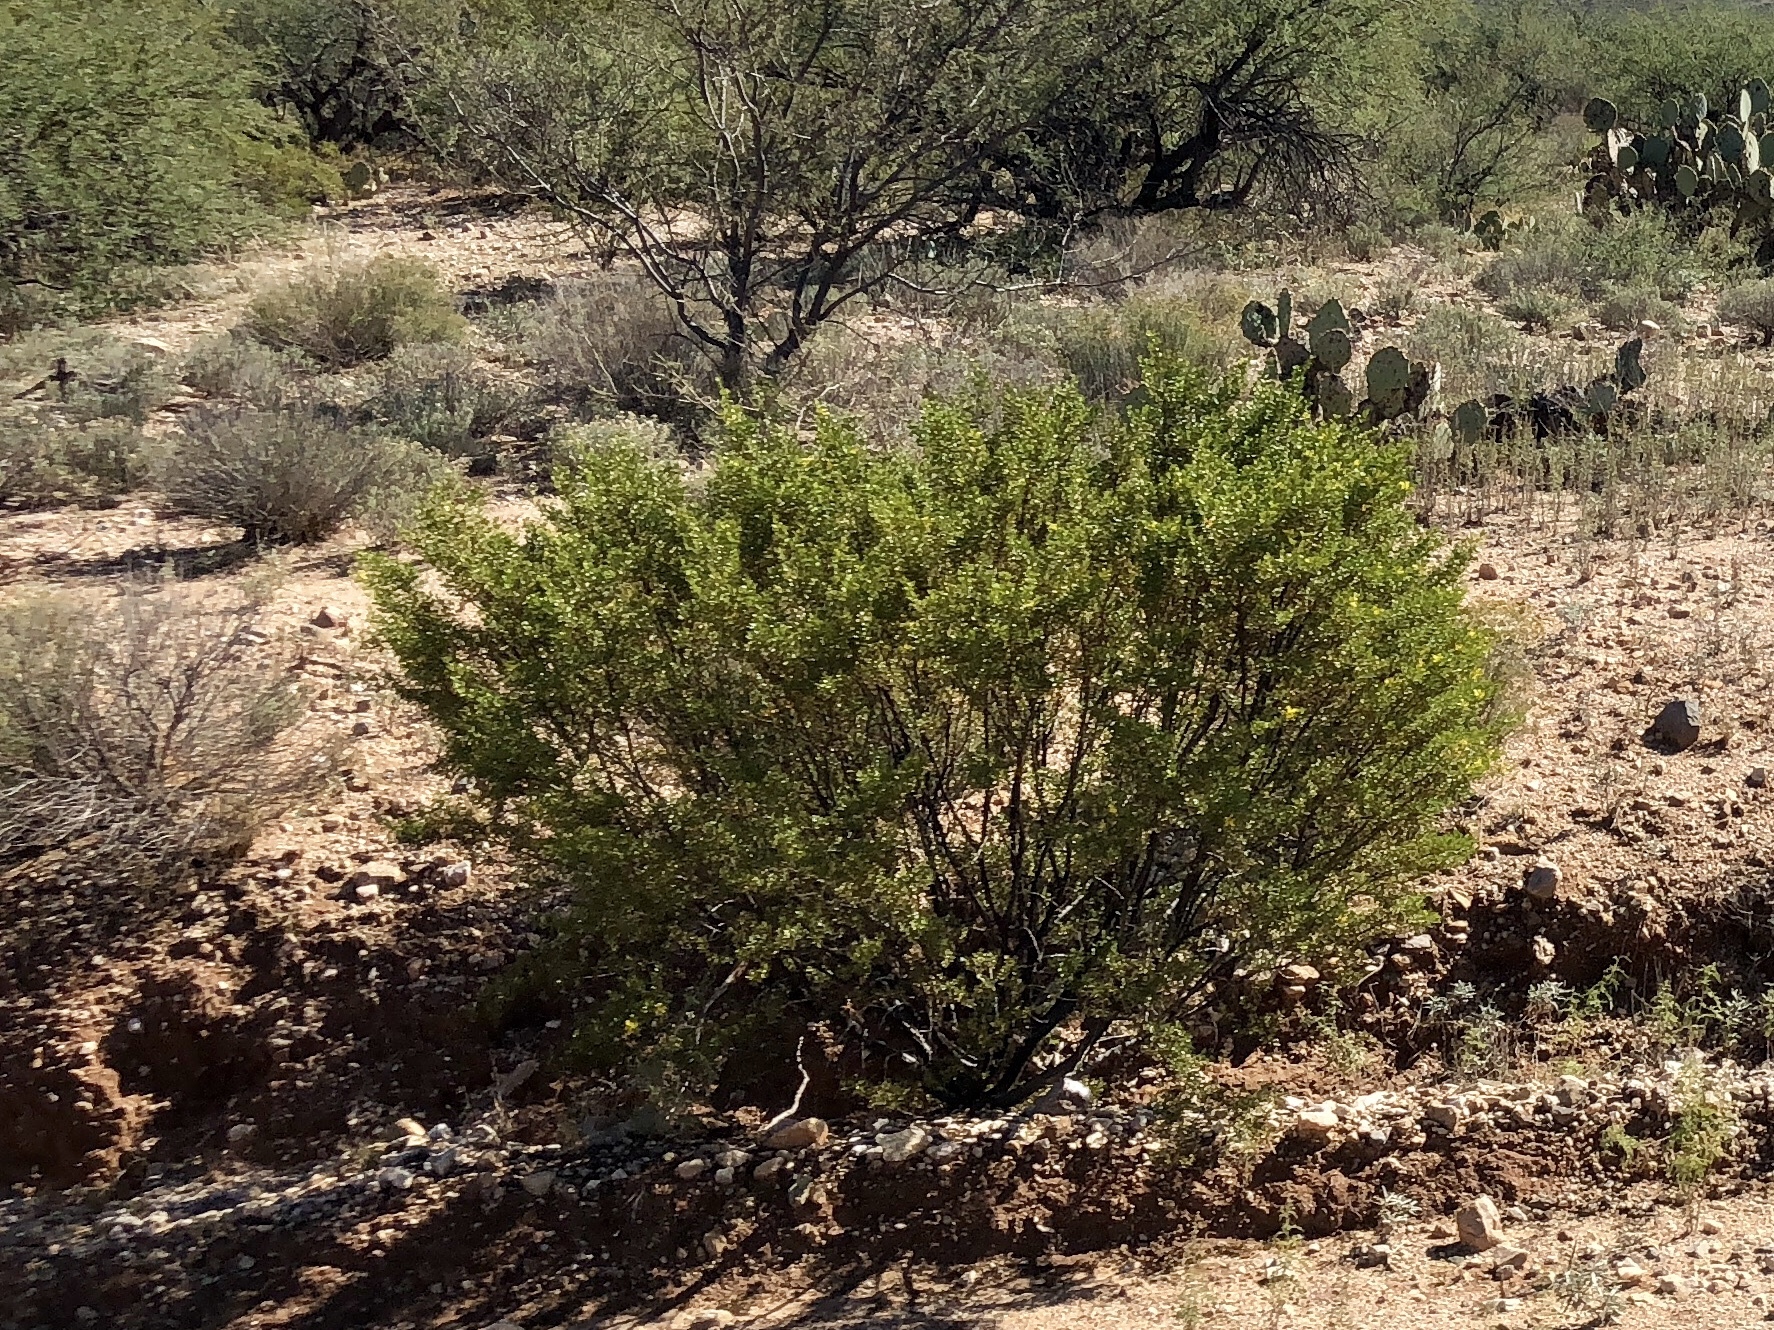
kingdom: Plantae
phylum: Tracheophyta
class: Magnoliopsida
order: Zygophyllales
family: Zygophyllaceae
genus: Larrea
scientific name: Larrea tridentata
